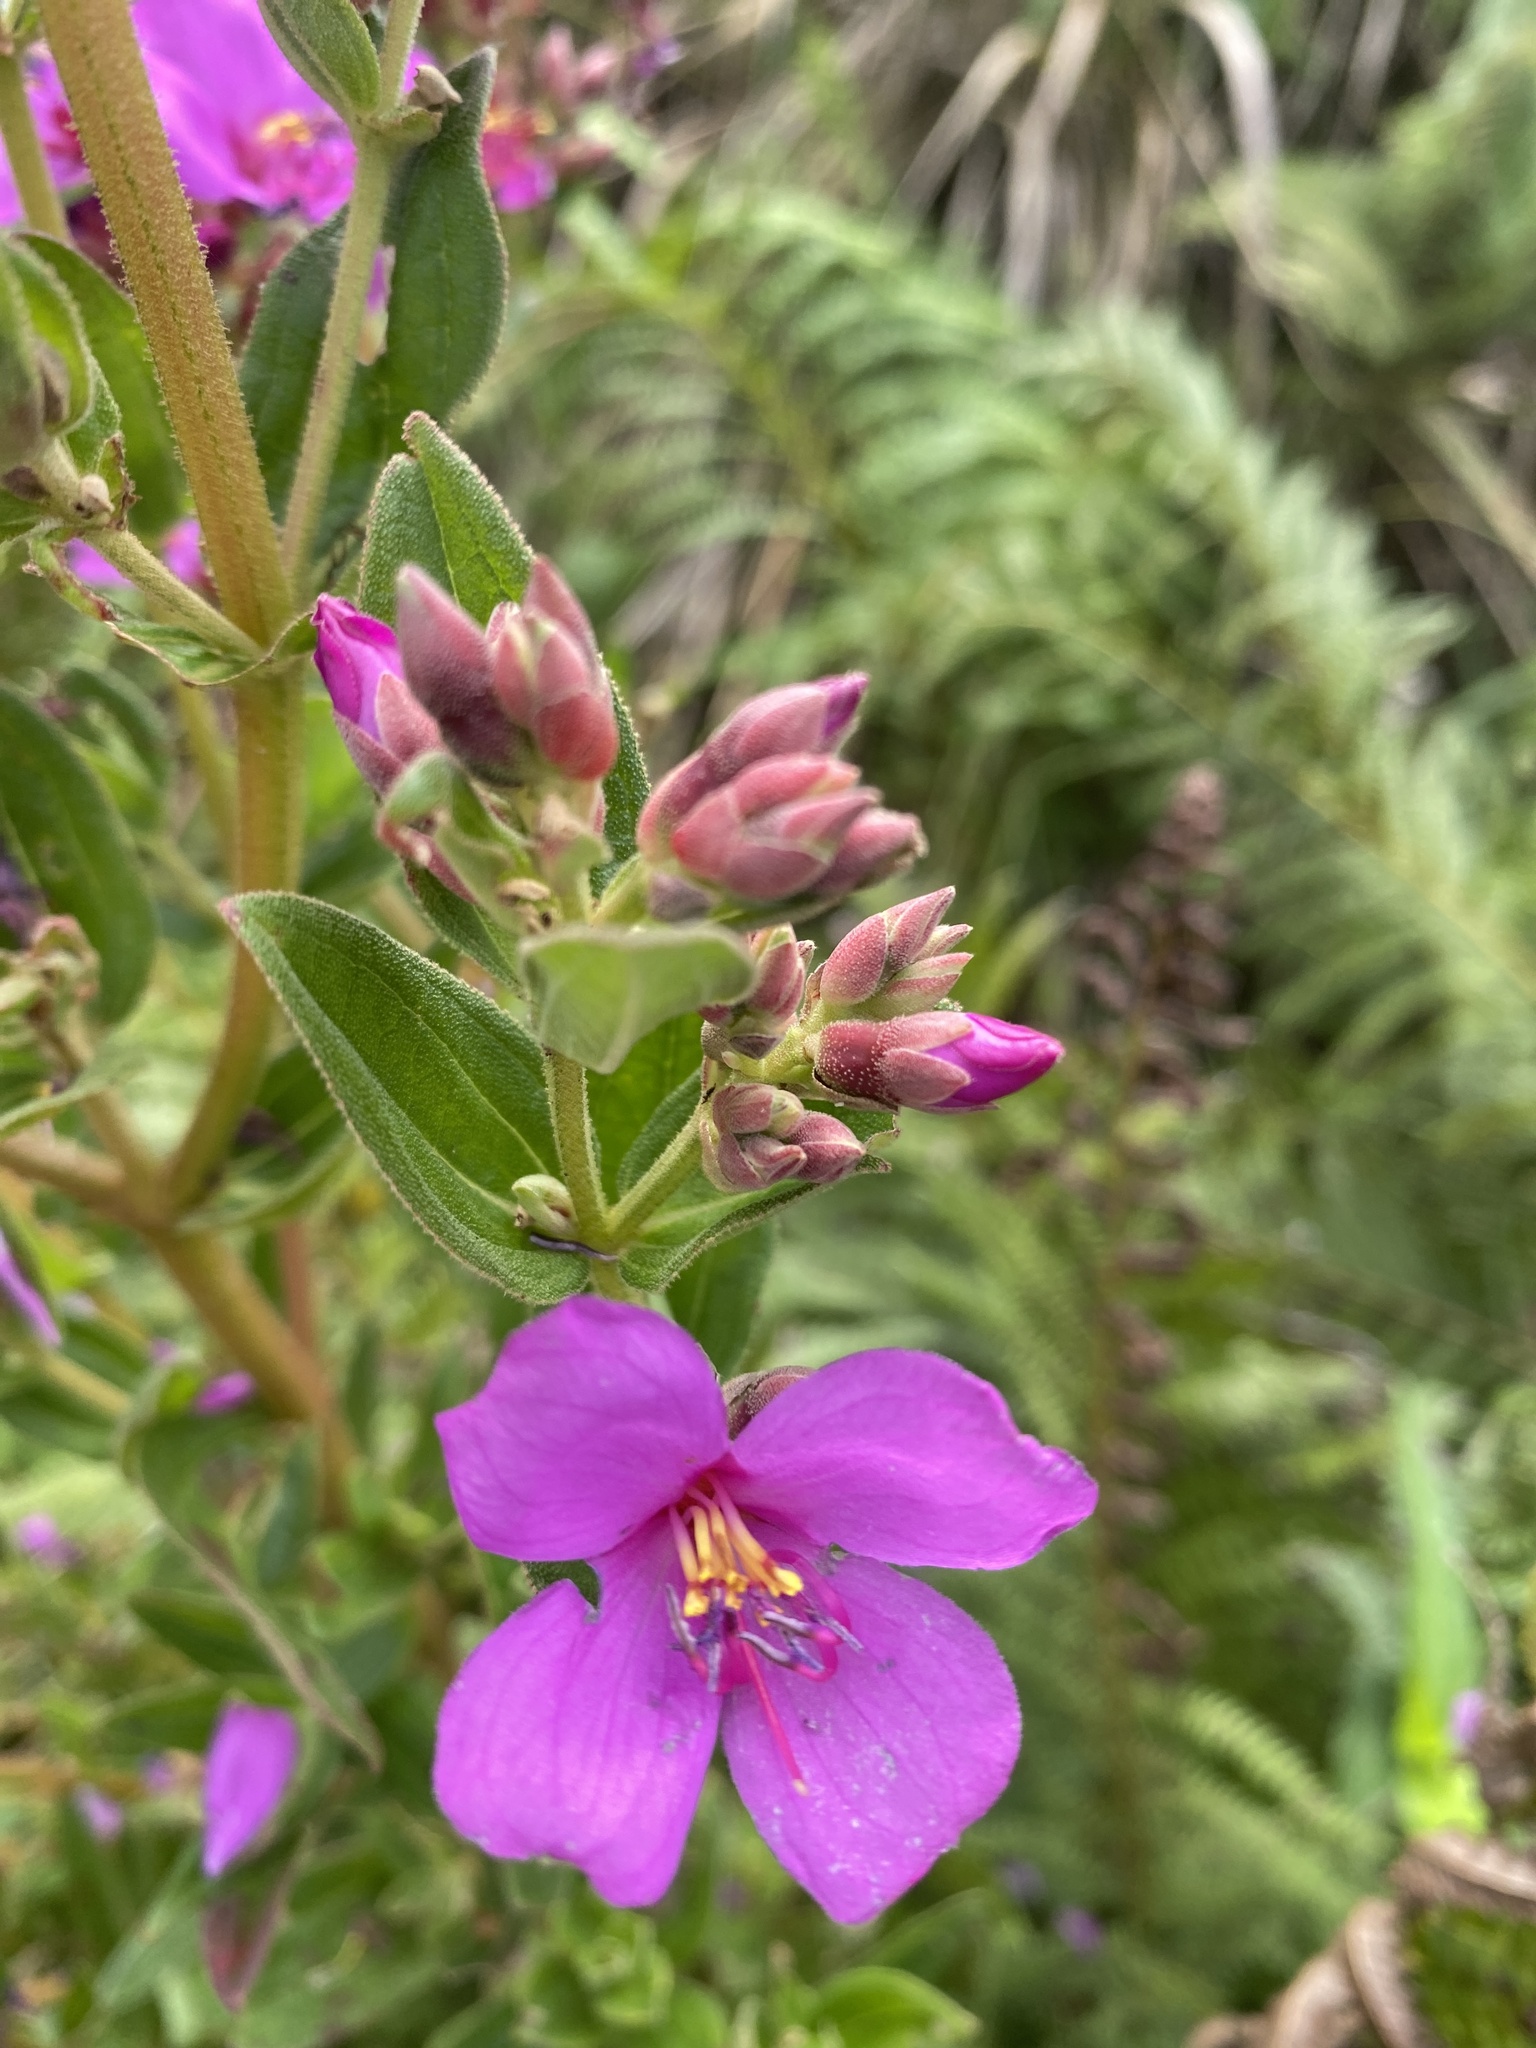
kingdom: Plantae
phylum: Tracheophyta
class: Magnoliopsida
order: Myrtales
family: Melastomataceae
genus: Argyrella
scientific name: Argyrella canescens
